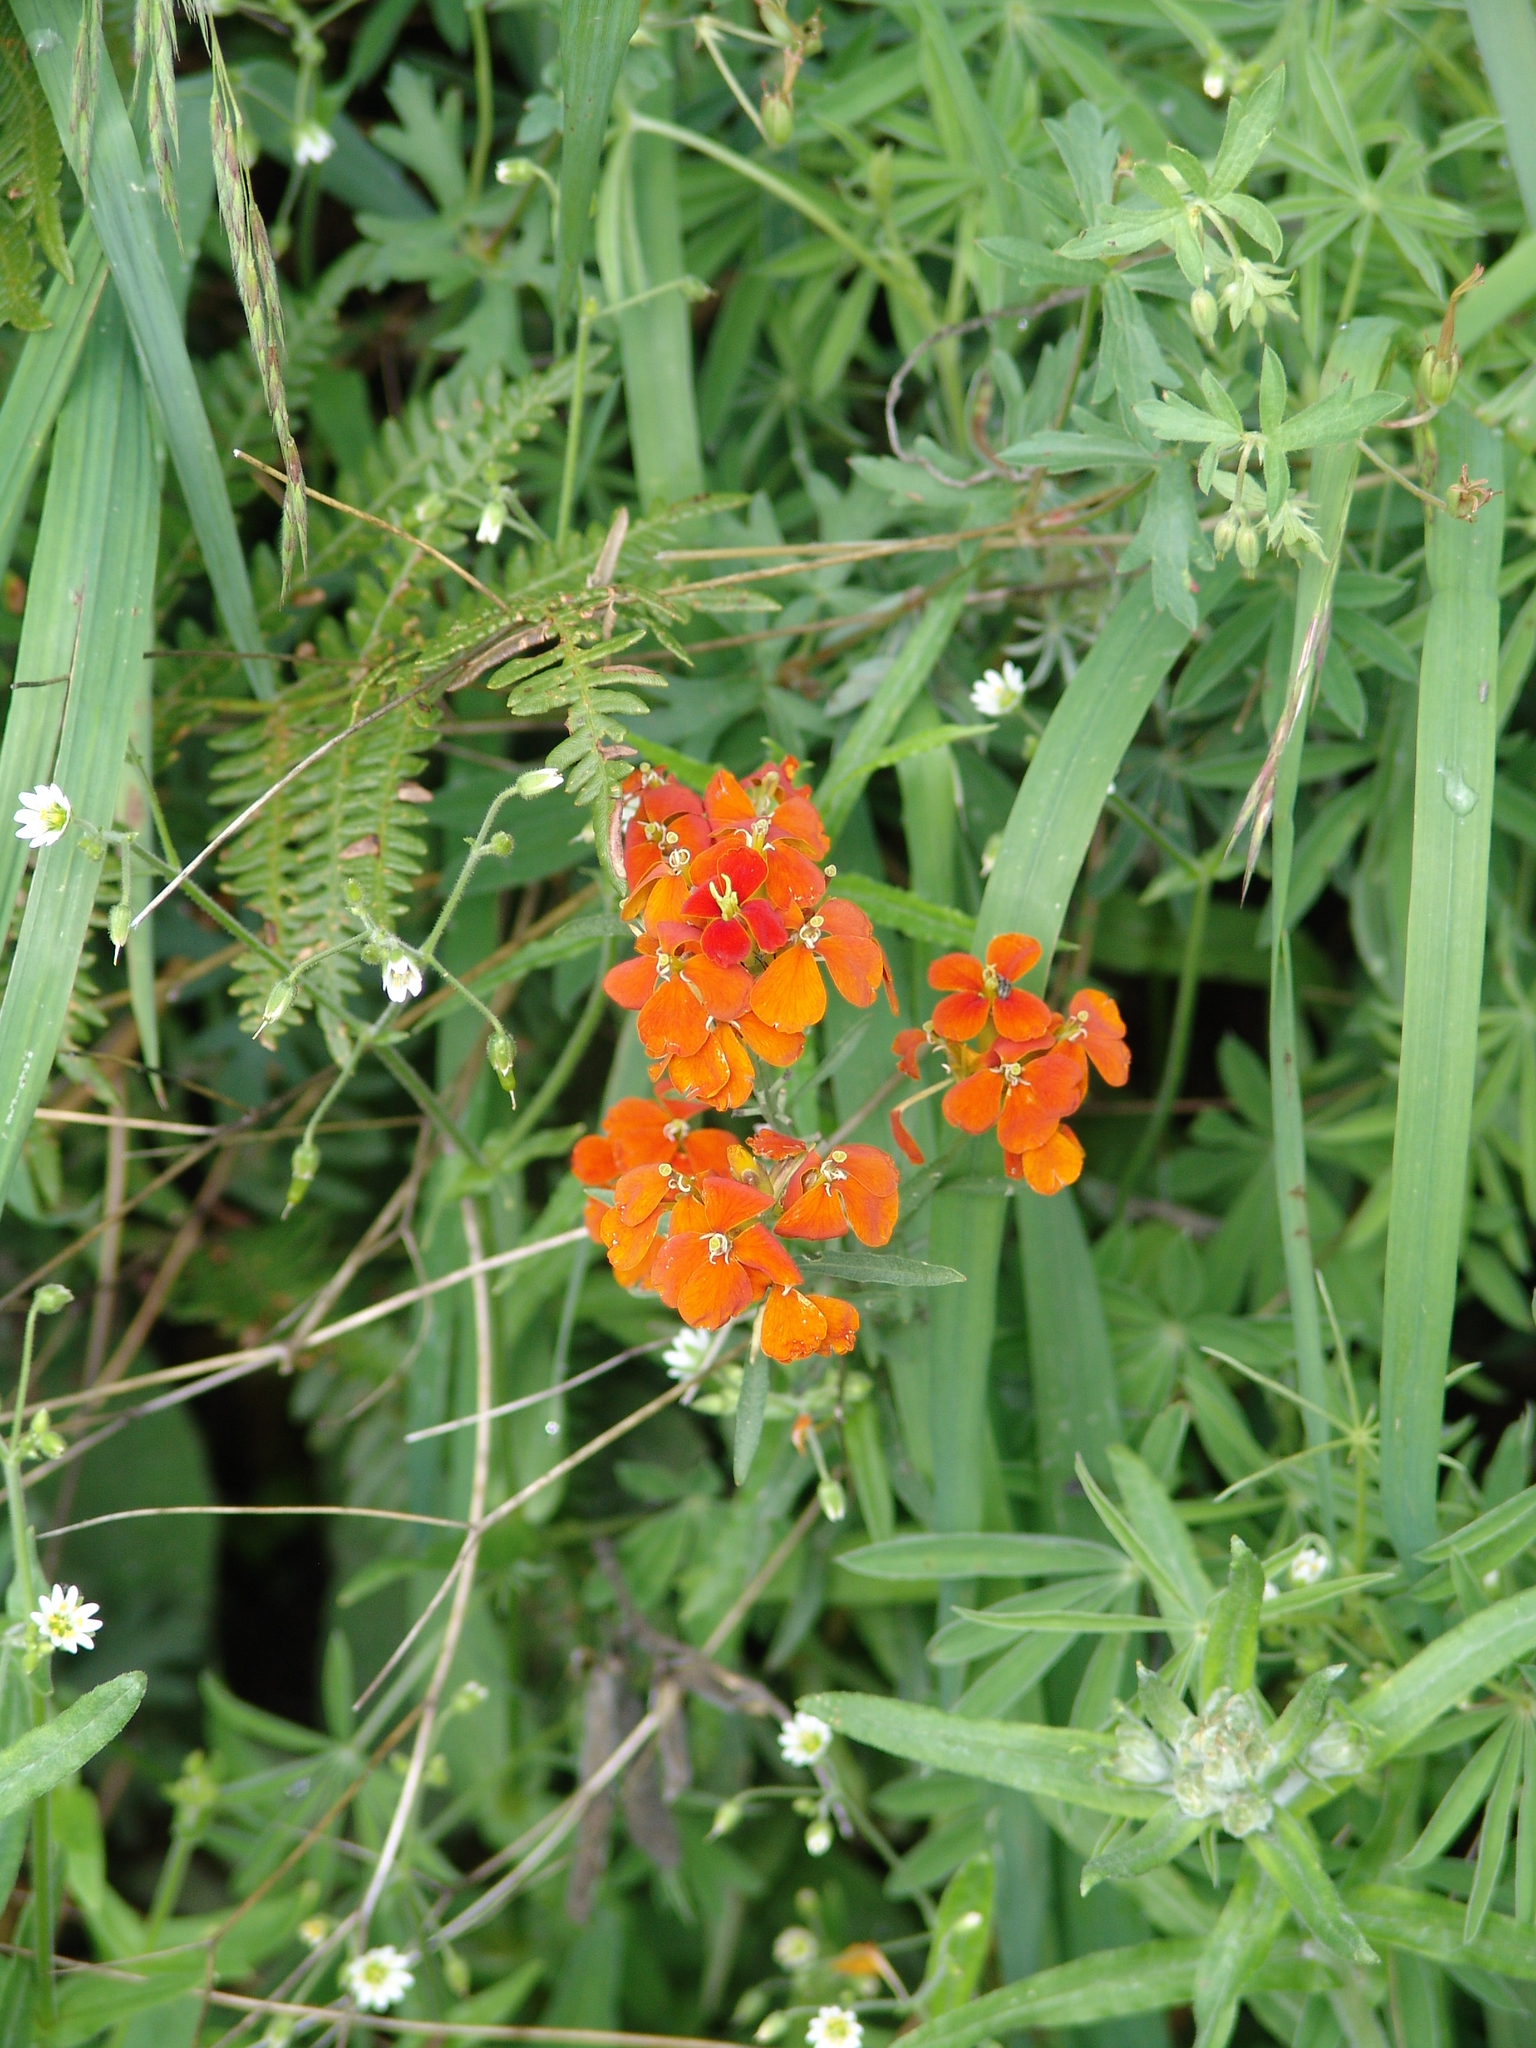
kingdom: Plantae
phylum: Tracheophyta
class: Magnoliopsida
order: Brassicales
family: Brassicaceae
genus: Erysimum
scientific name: Erysimum capitatum
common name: Western wallflower
